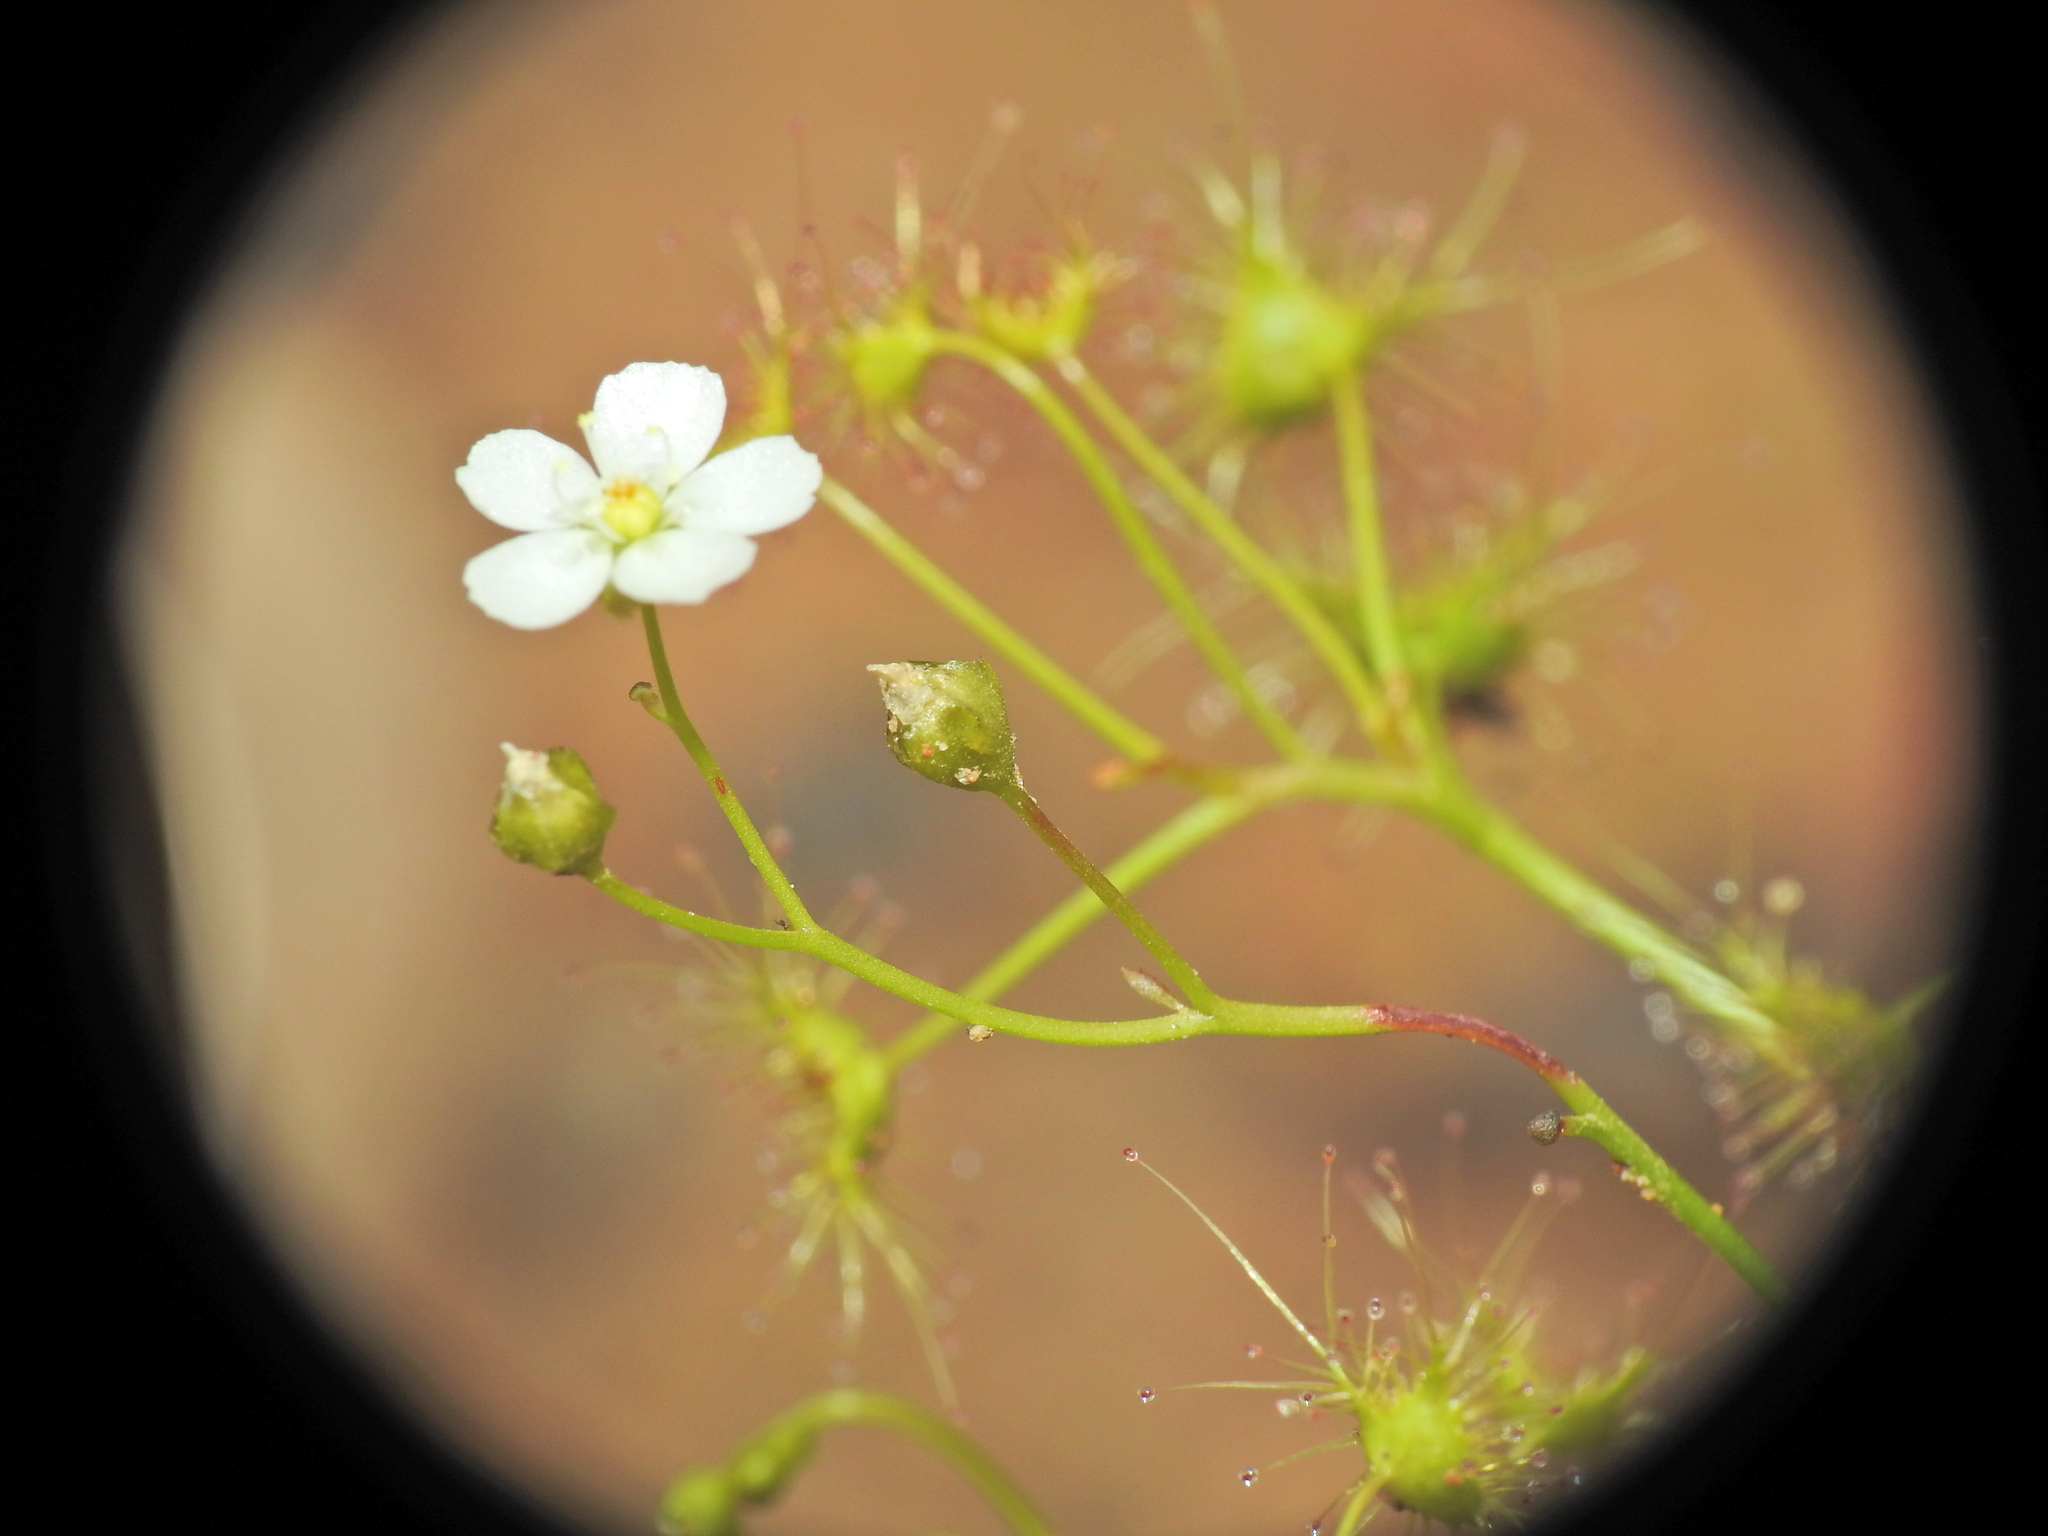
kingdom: Plantae
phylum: Tracheophyta
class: Magnoliopsida
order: Caryophyllales
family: Droseraceae
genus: Drosera
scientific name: Drosera peltata
